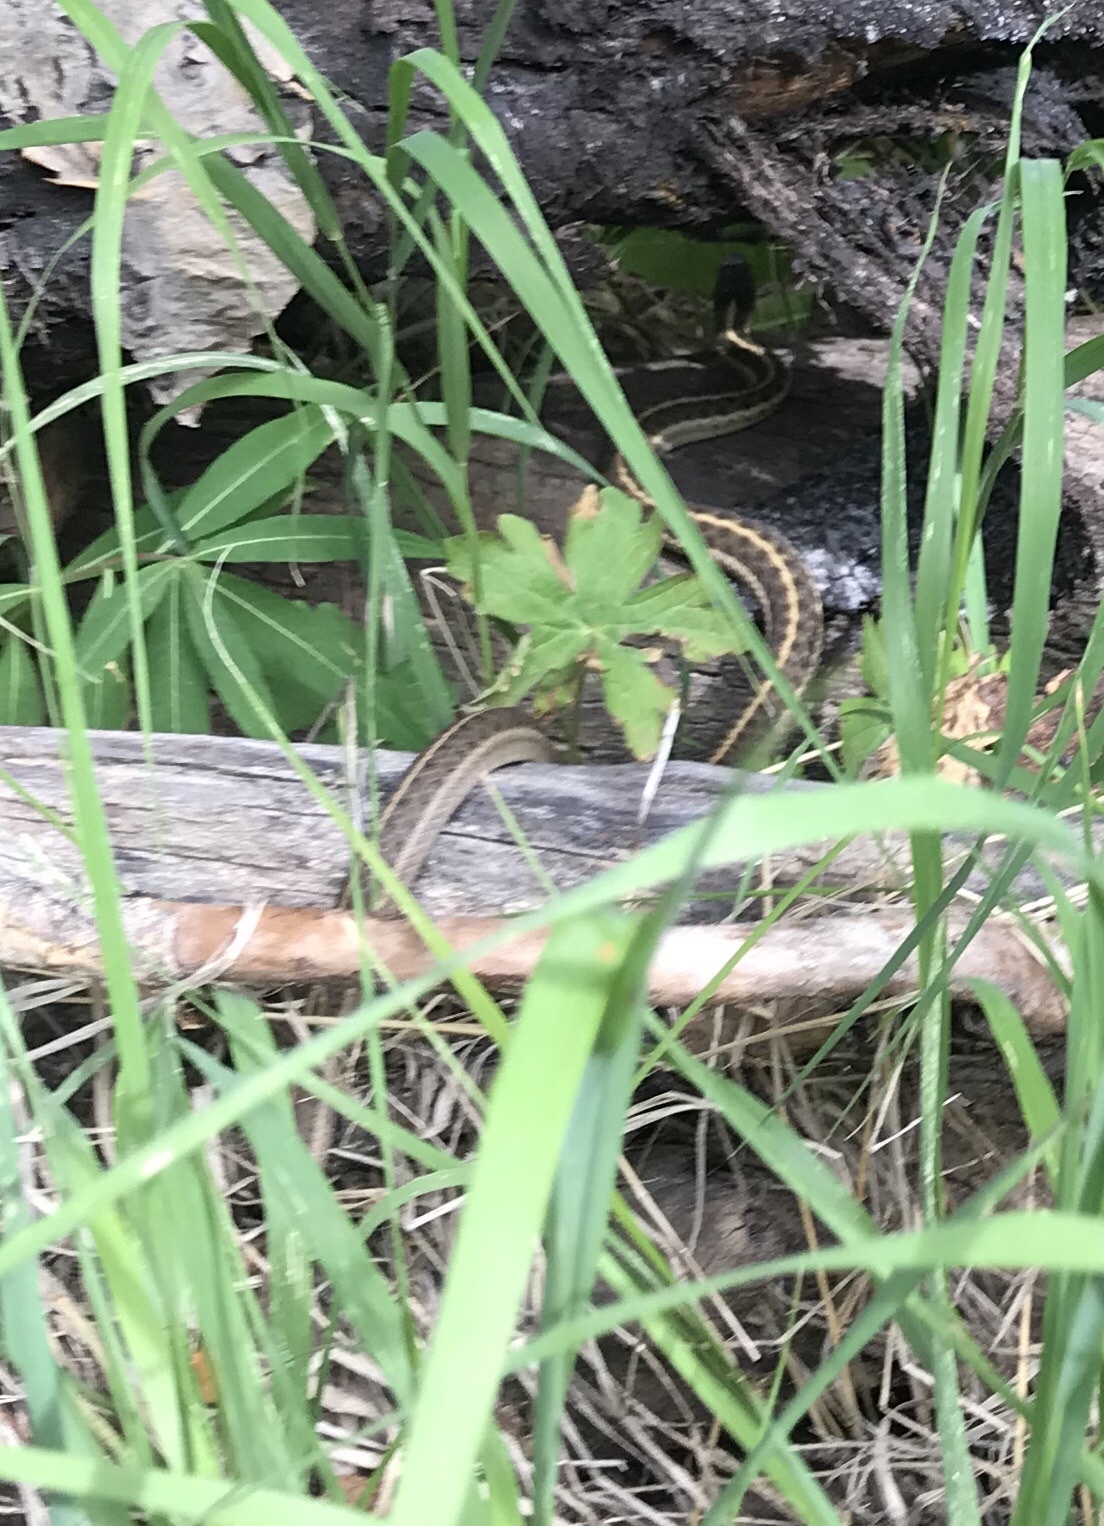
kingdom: Animalia
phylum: Chordata
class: Squamata
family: Colubridae
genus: Thamnophis
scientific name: Thamnophis elegans
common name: Western terrestrial garter snake
